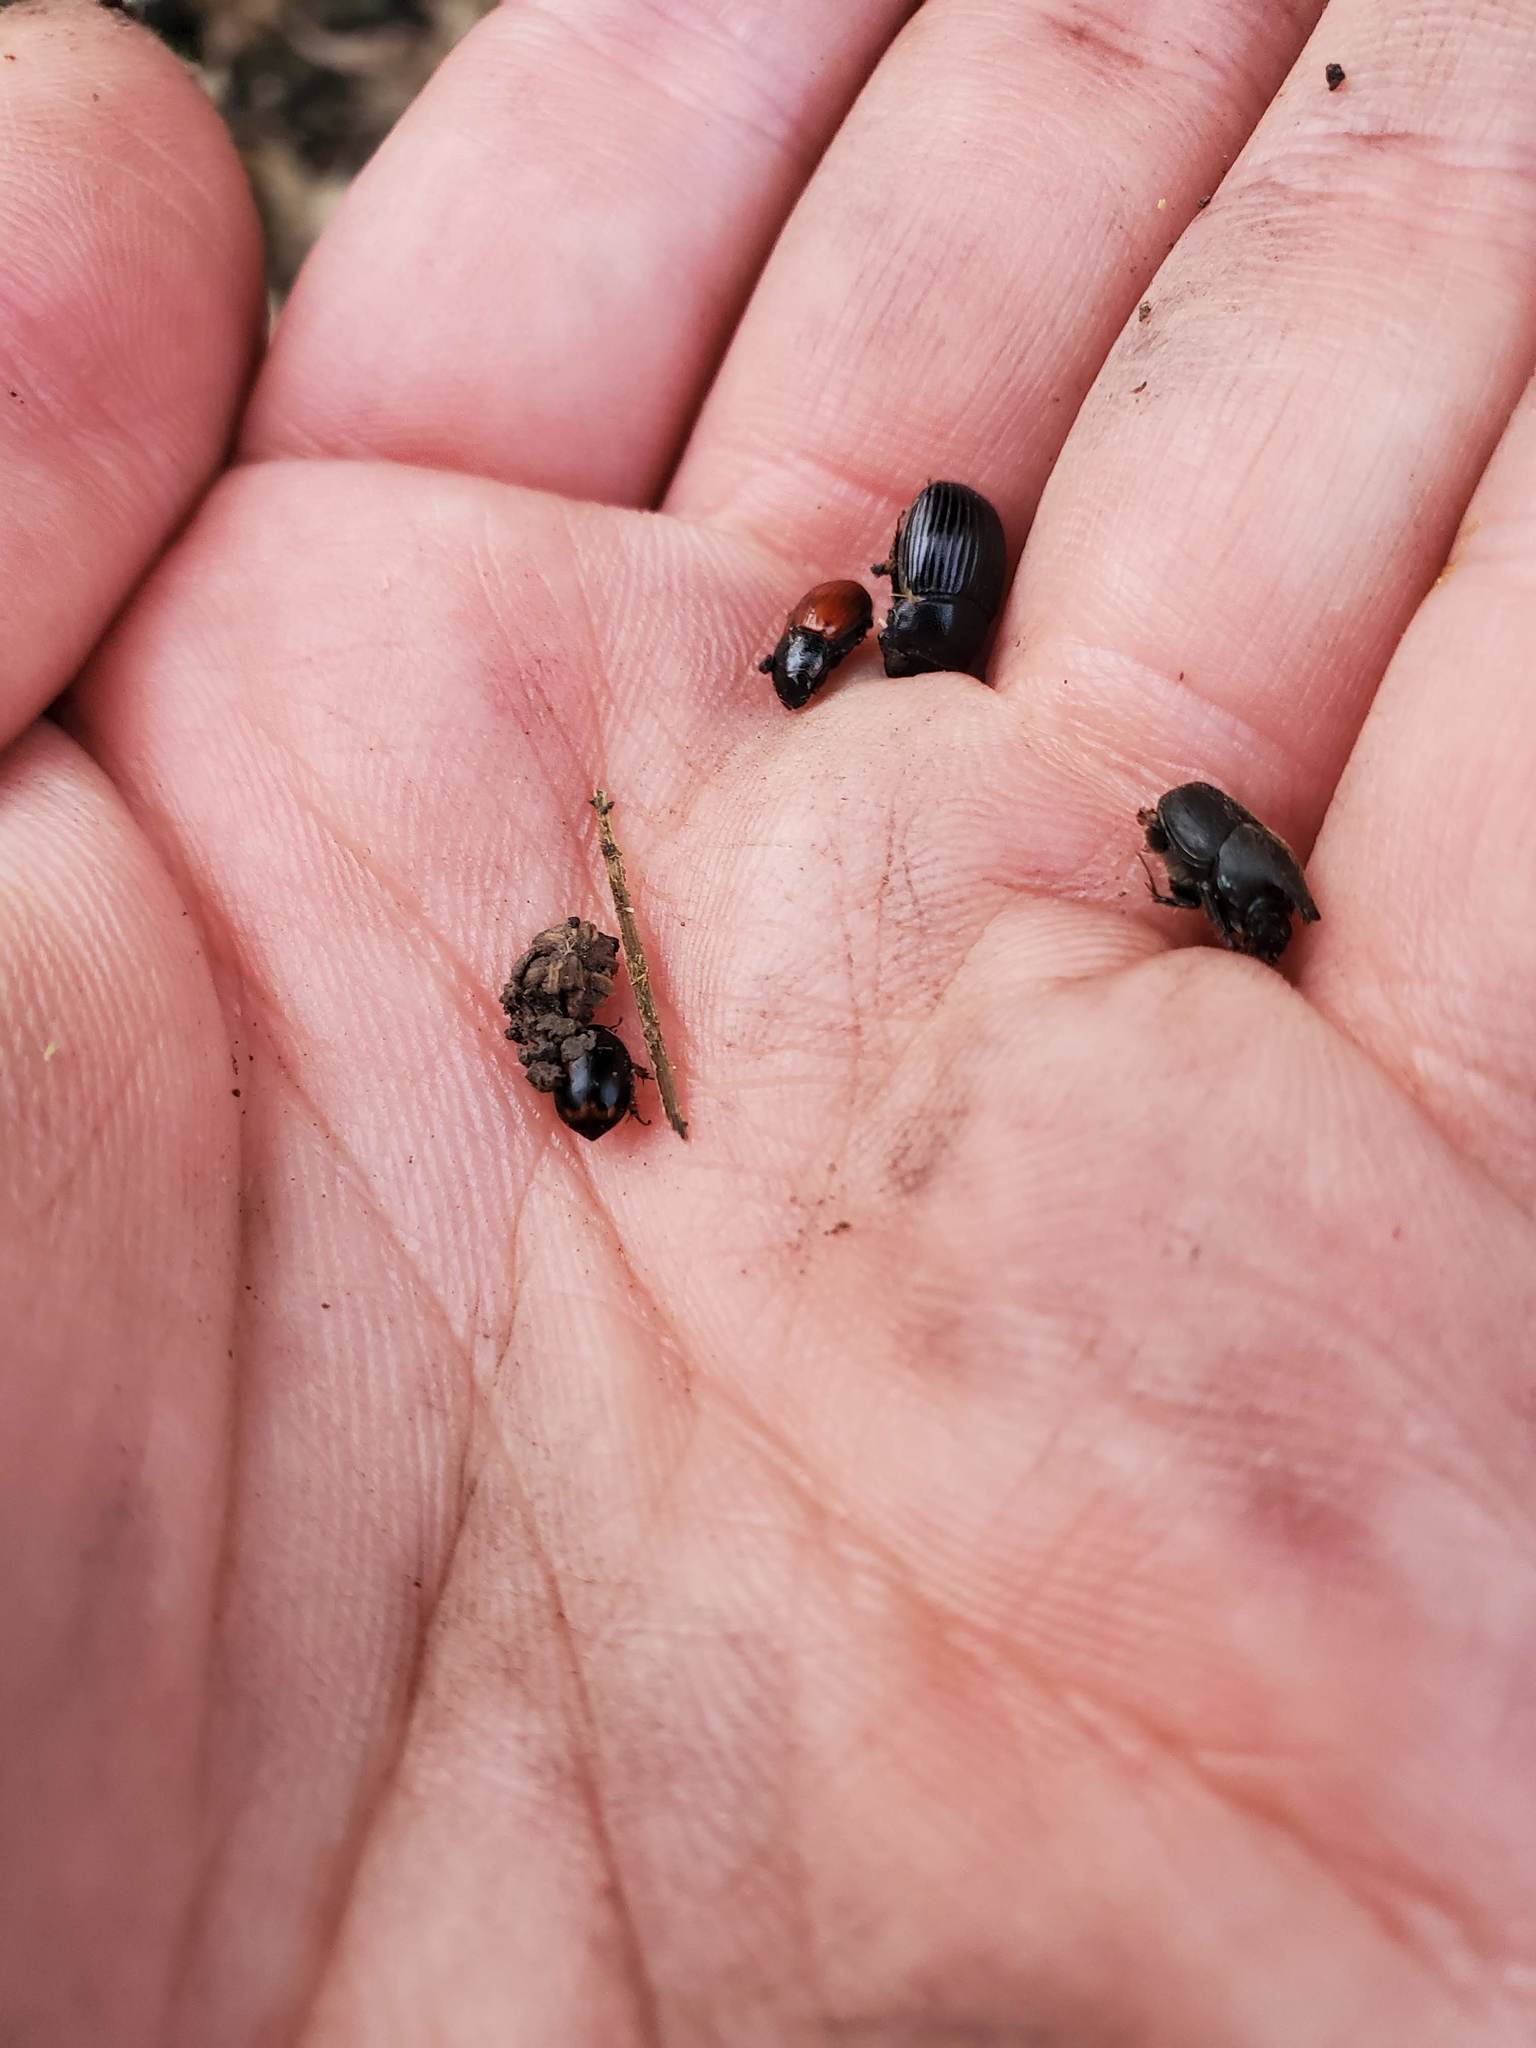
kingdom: Animalia
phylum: Arthropoda
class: Insecta
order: Coleoptera
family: Hydrophilidae
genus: Sphaeridium
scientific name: Sphaeridium
